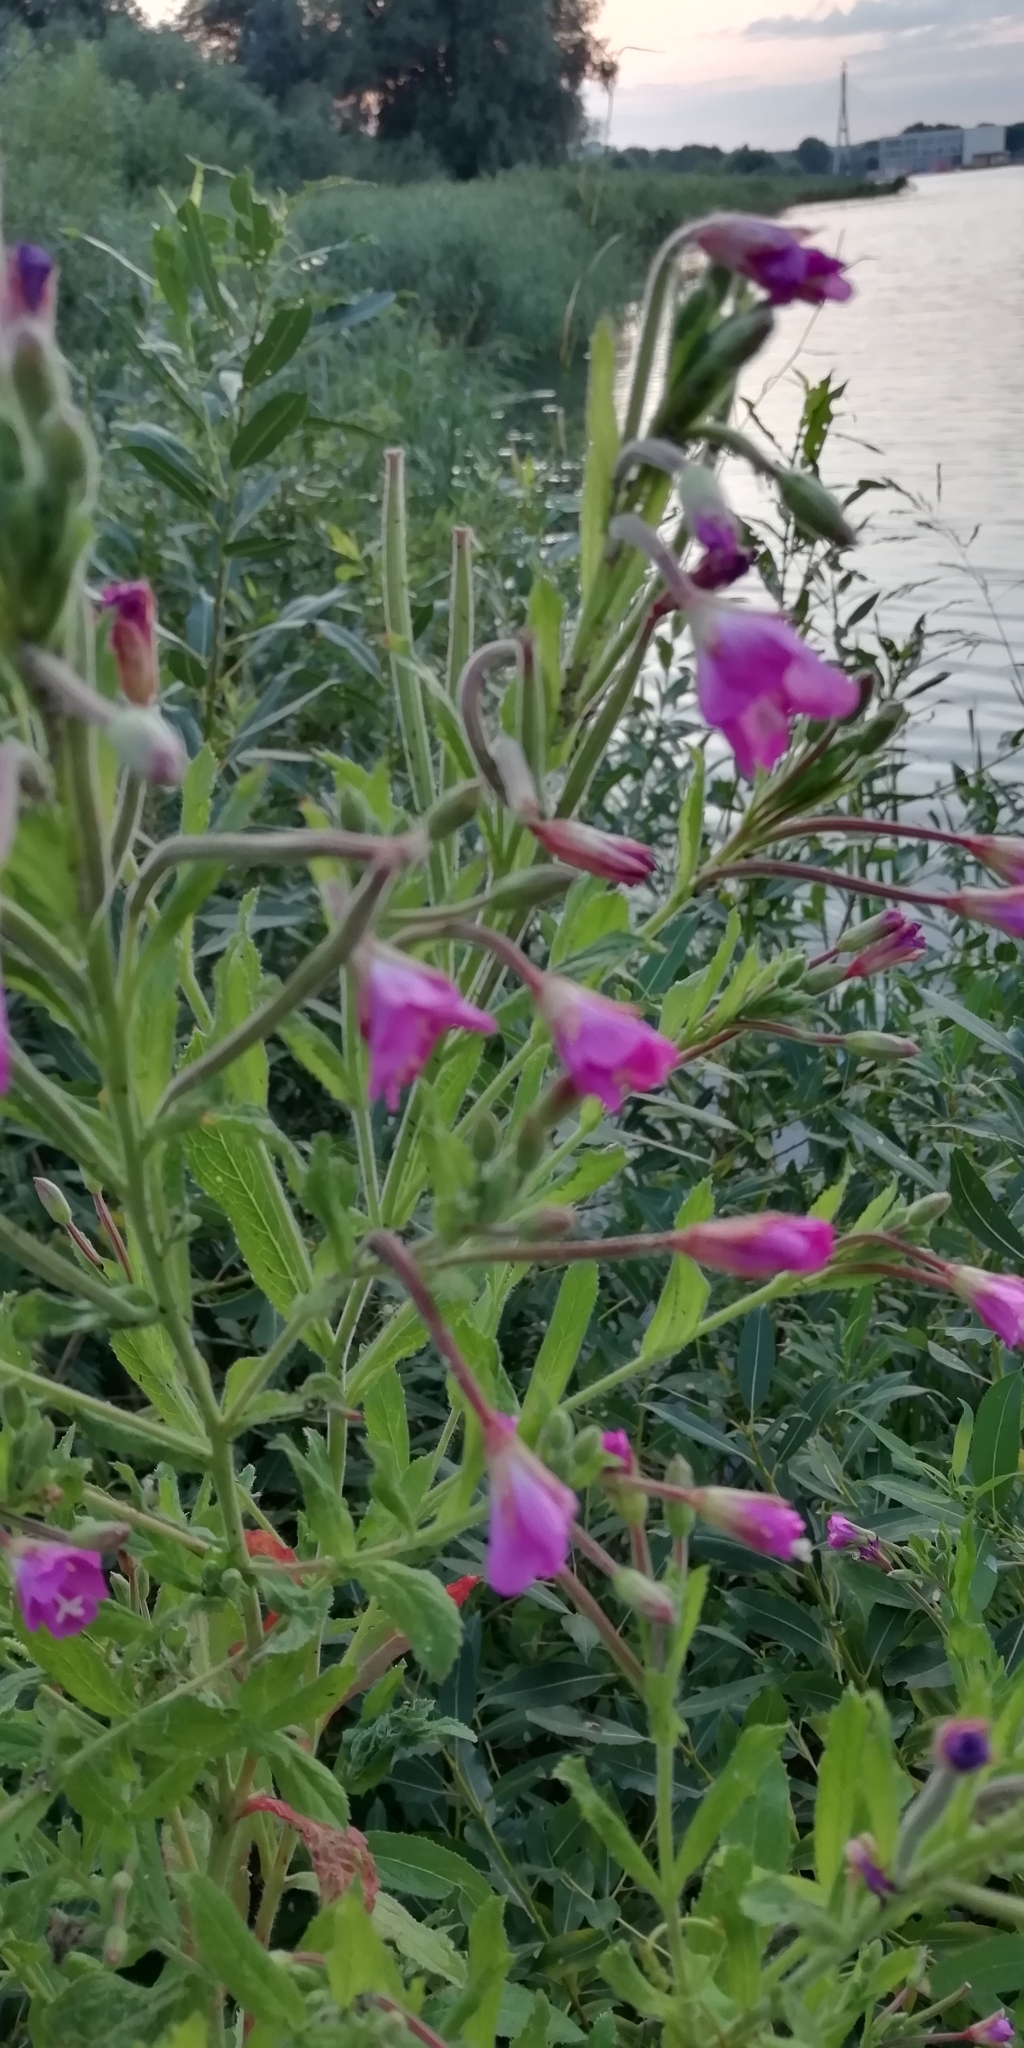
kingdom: Plantae
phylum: Tracheophyta
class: Magnoliopsida
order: Myrtales
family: Onagraceae
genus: Chamaenerion
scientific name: Chamaenerion angustifolium
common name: Fireweed
